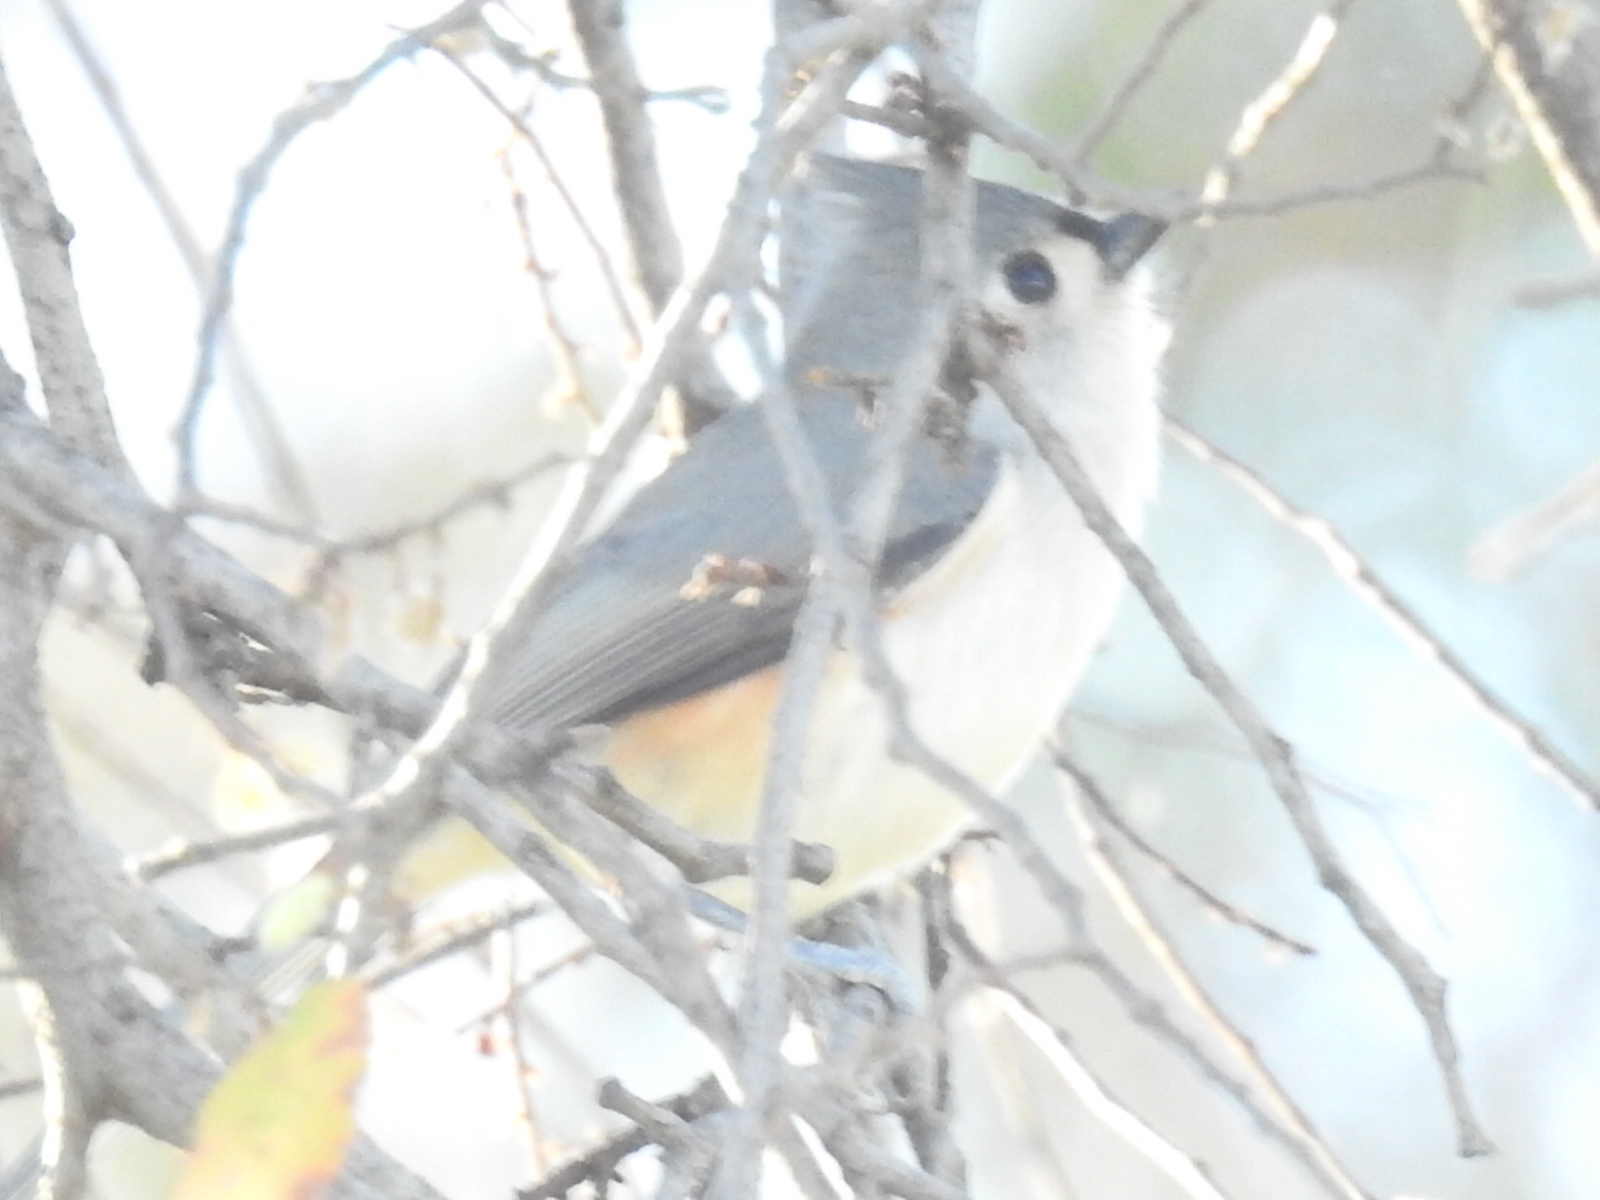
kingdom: Animalia
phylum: Chordata
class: Aves
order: Passeriformes
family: Paridae
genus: Baeolophus
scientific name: Baeolophus bicolor
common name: Tufted titmouse
